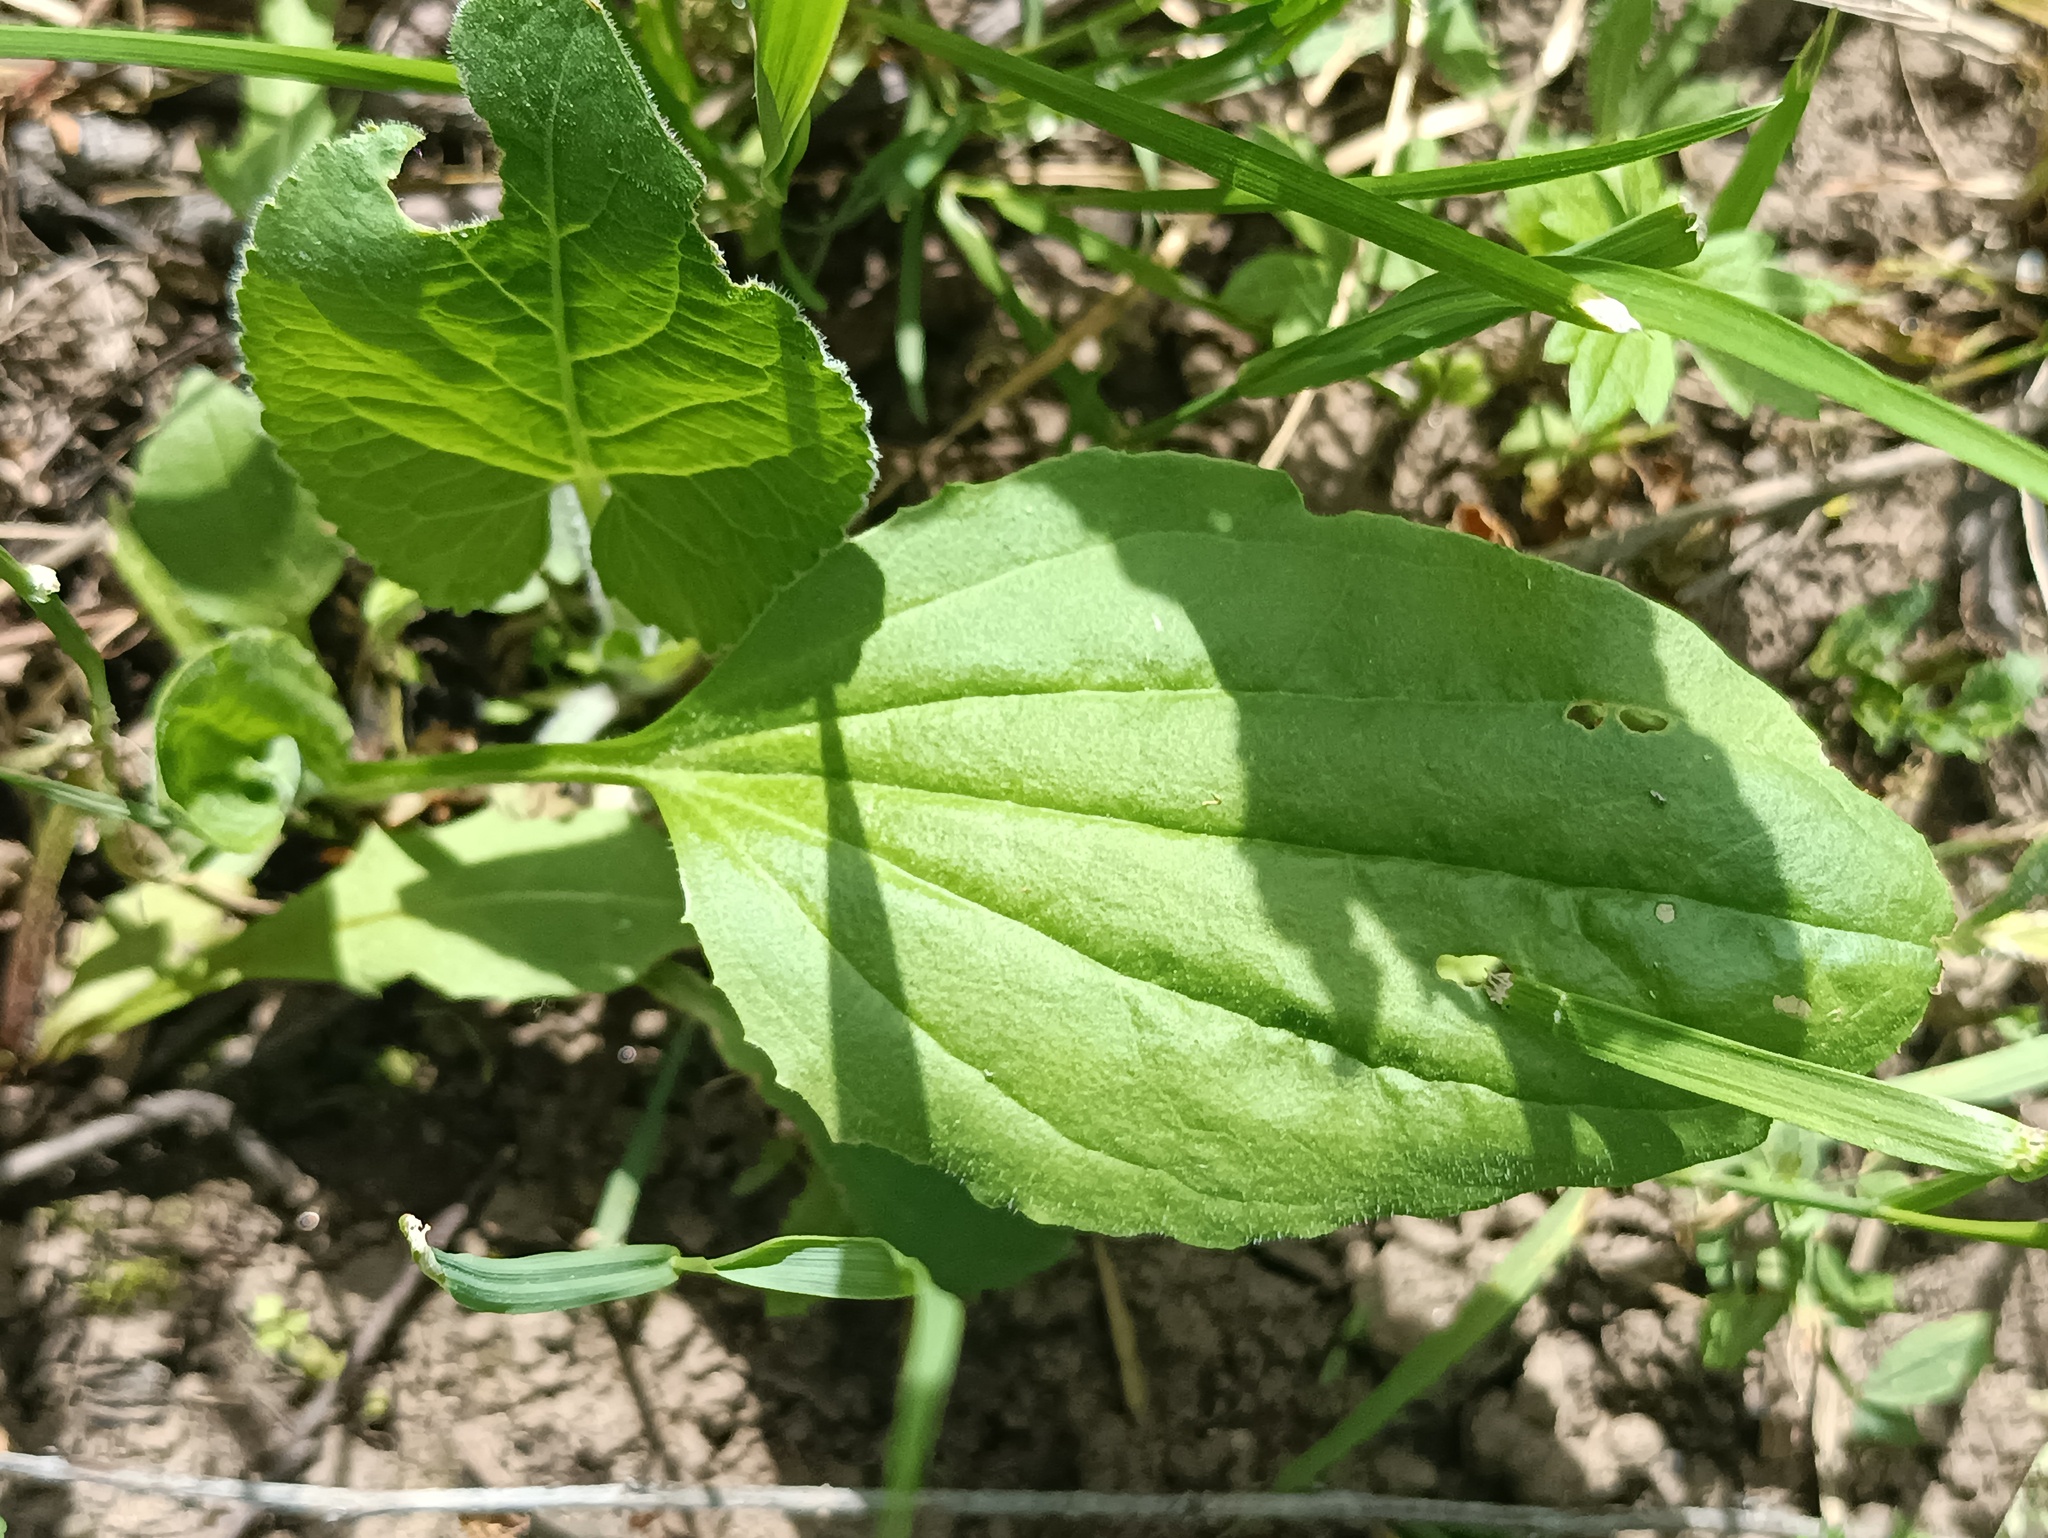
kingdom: Plantae
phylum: Tracheophyta
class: Magnoliopsida
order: Lamiales
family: Plantaginaceae
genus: Plantago
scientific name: Plantago major
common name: Common plantain
